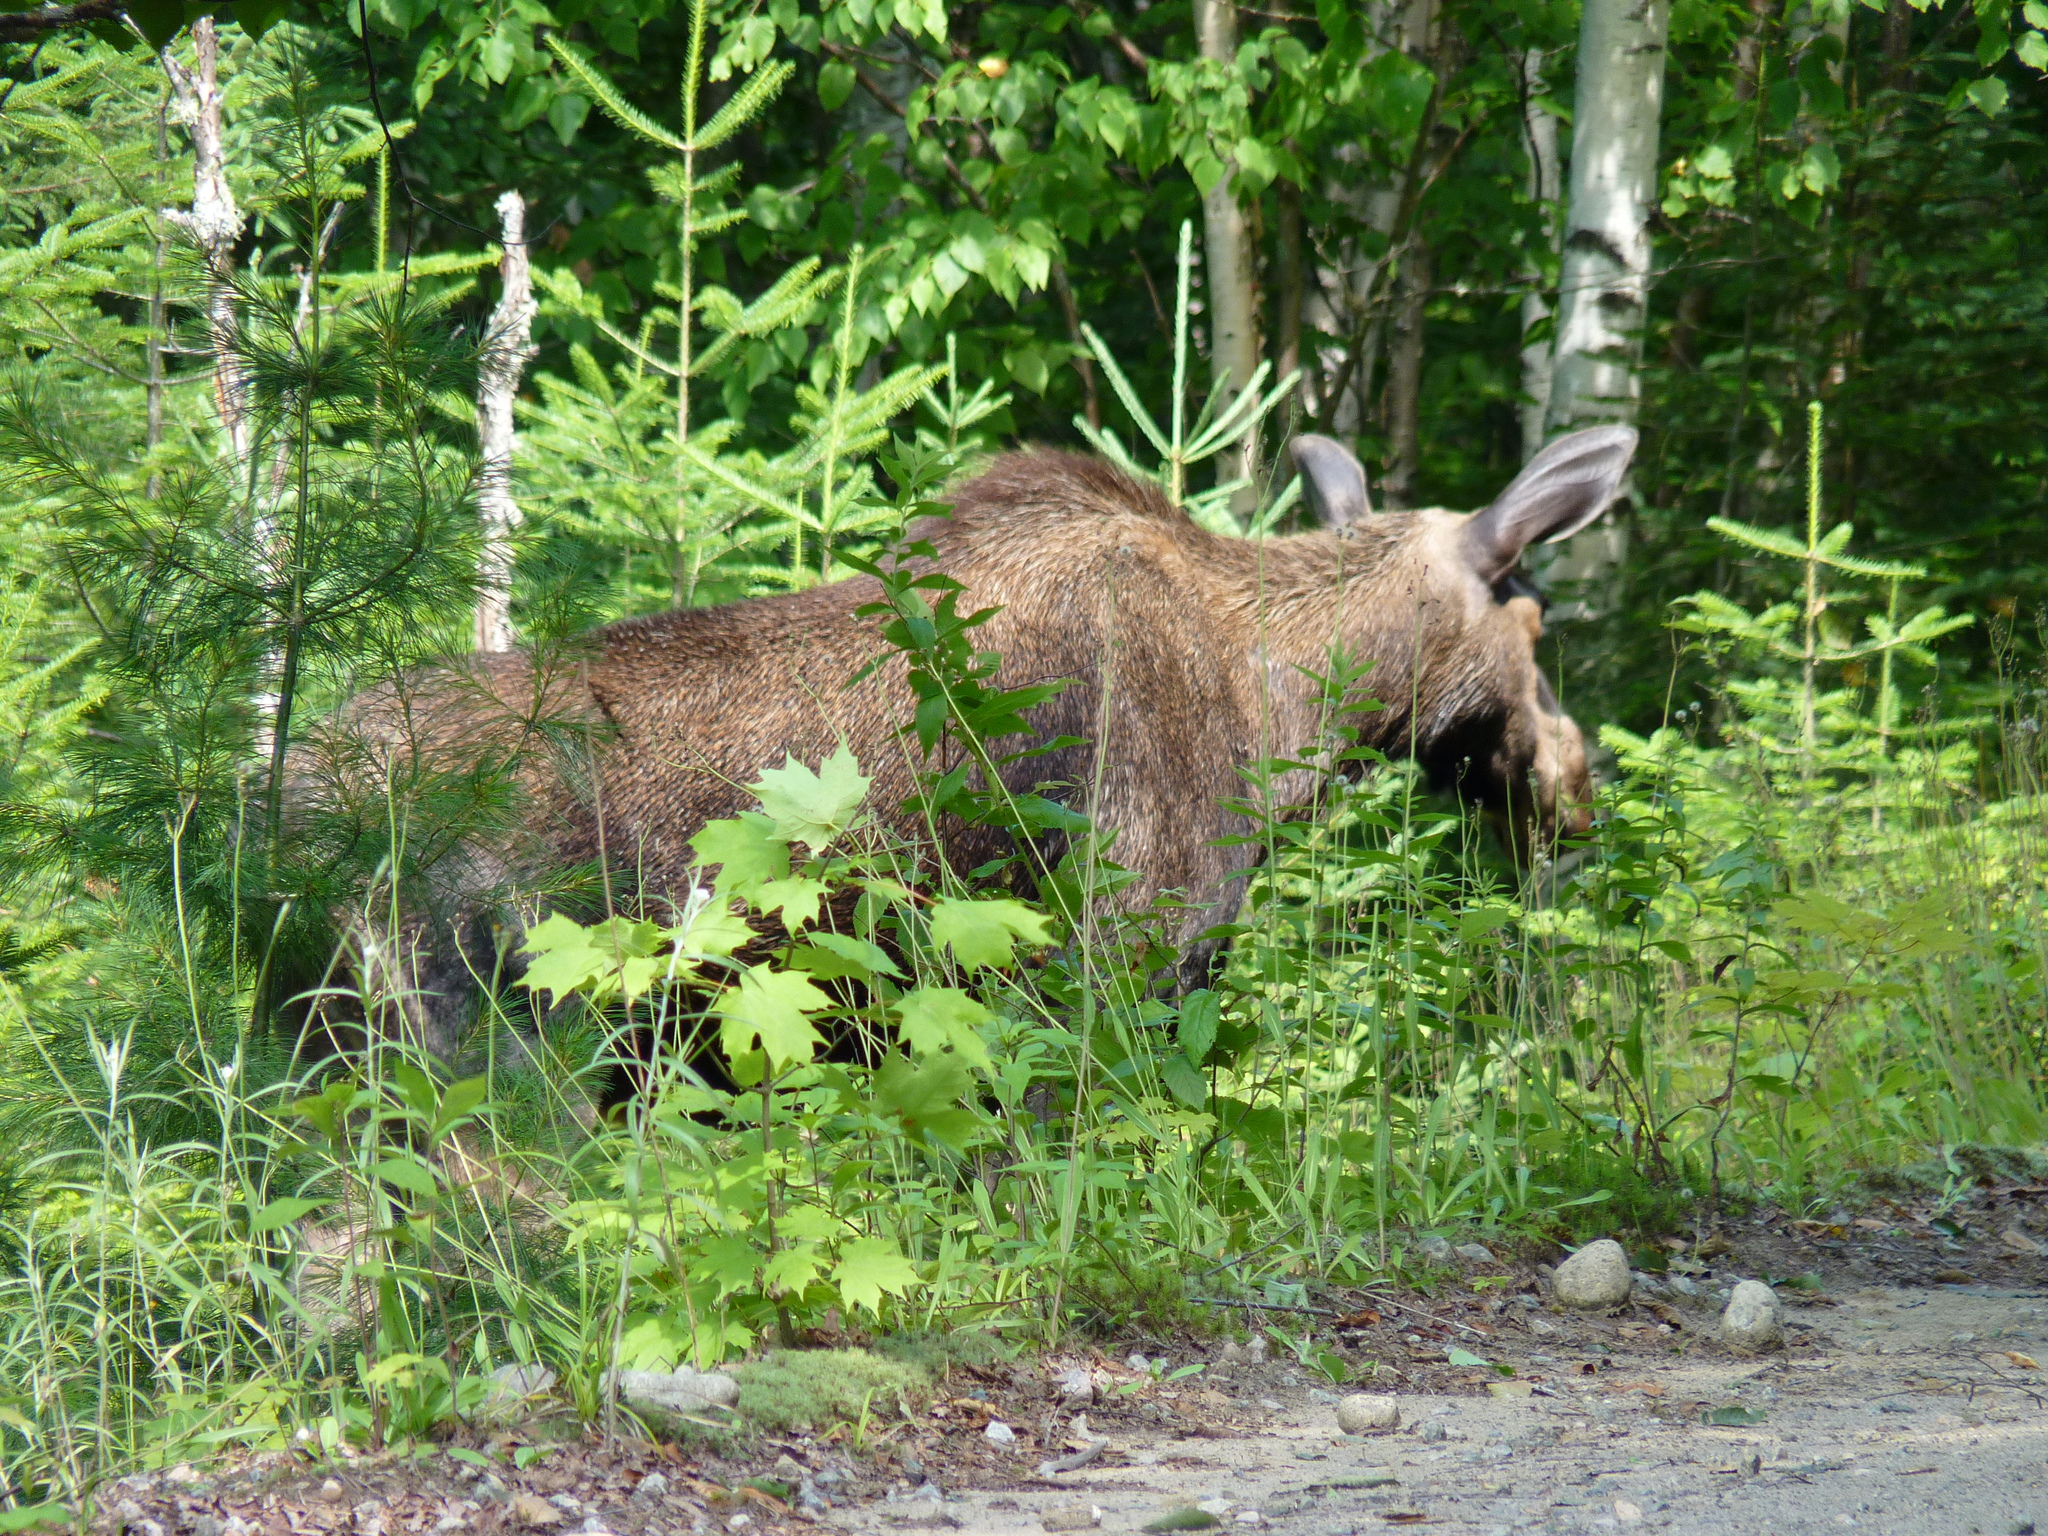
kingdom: Animalia
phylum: Chordata
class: Mammalia
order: Artiodactyla
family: Cervidae
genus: Alces
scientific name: Alces alces
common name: Moose
